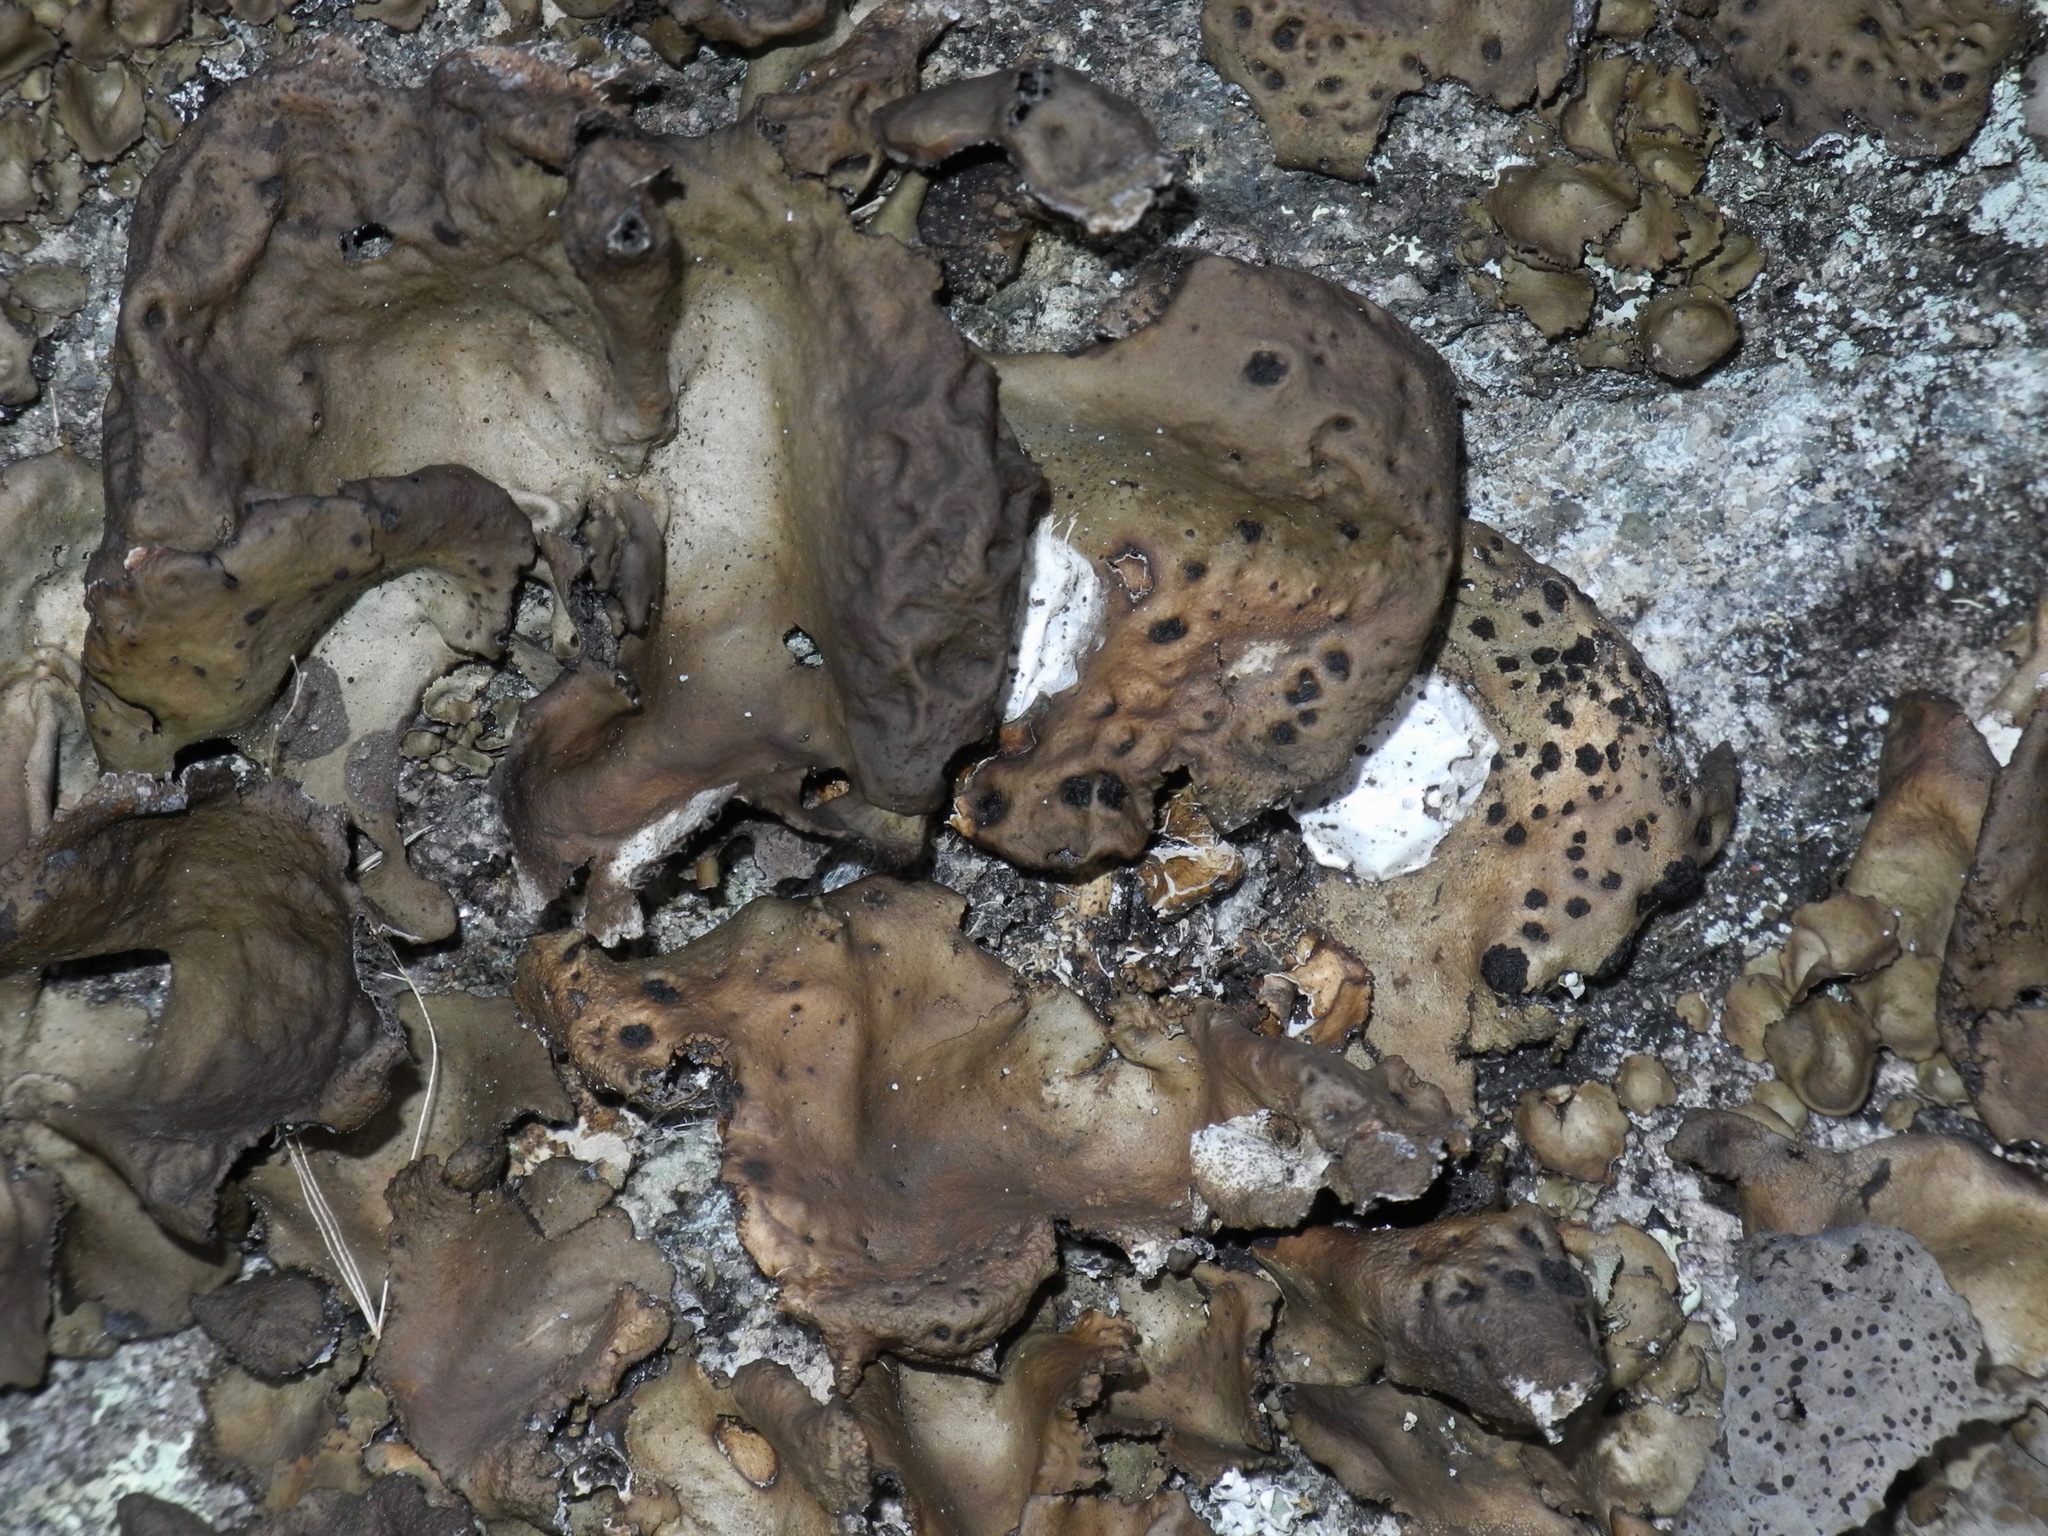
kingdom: Fungi
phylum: Ascomycota
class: Lecanoromycetes
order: Umbilicariales
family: Umbilicariaceae
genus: Umbilicaria
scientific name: Umbilicaria muhlenbergii
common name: Lesser rocktripe
